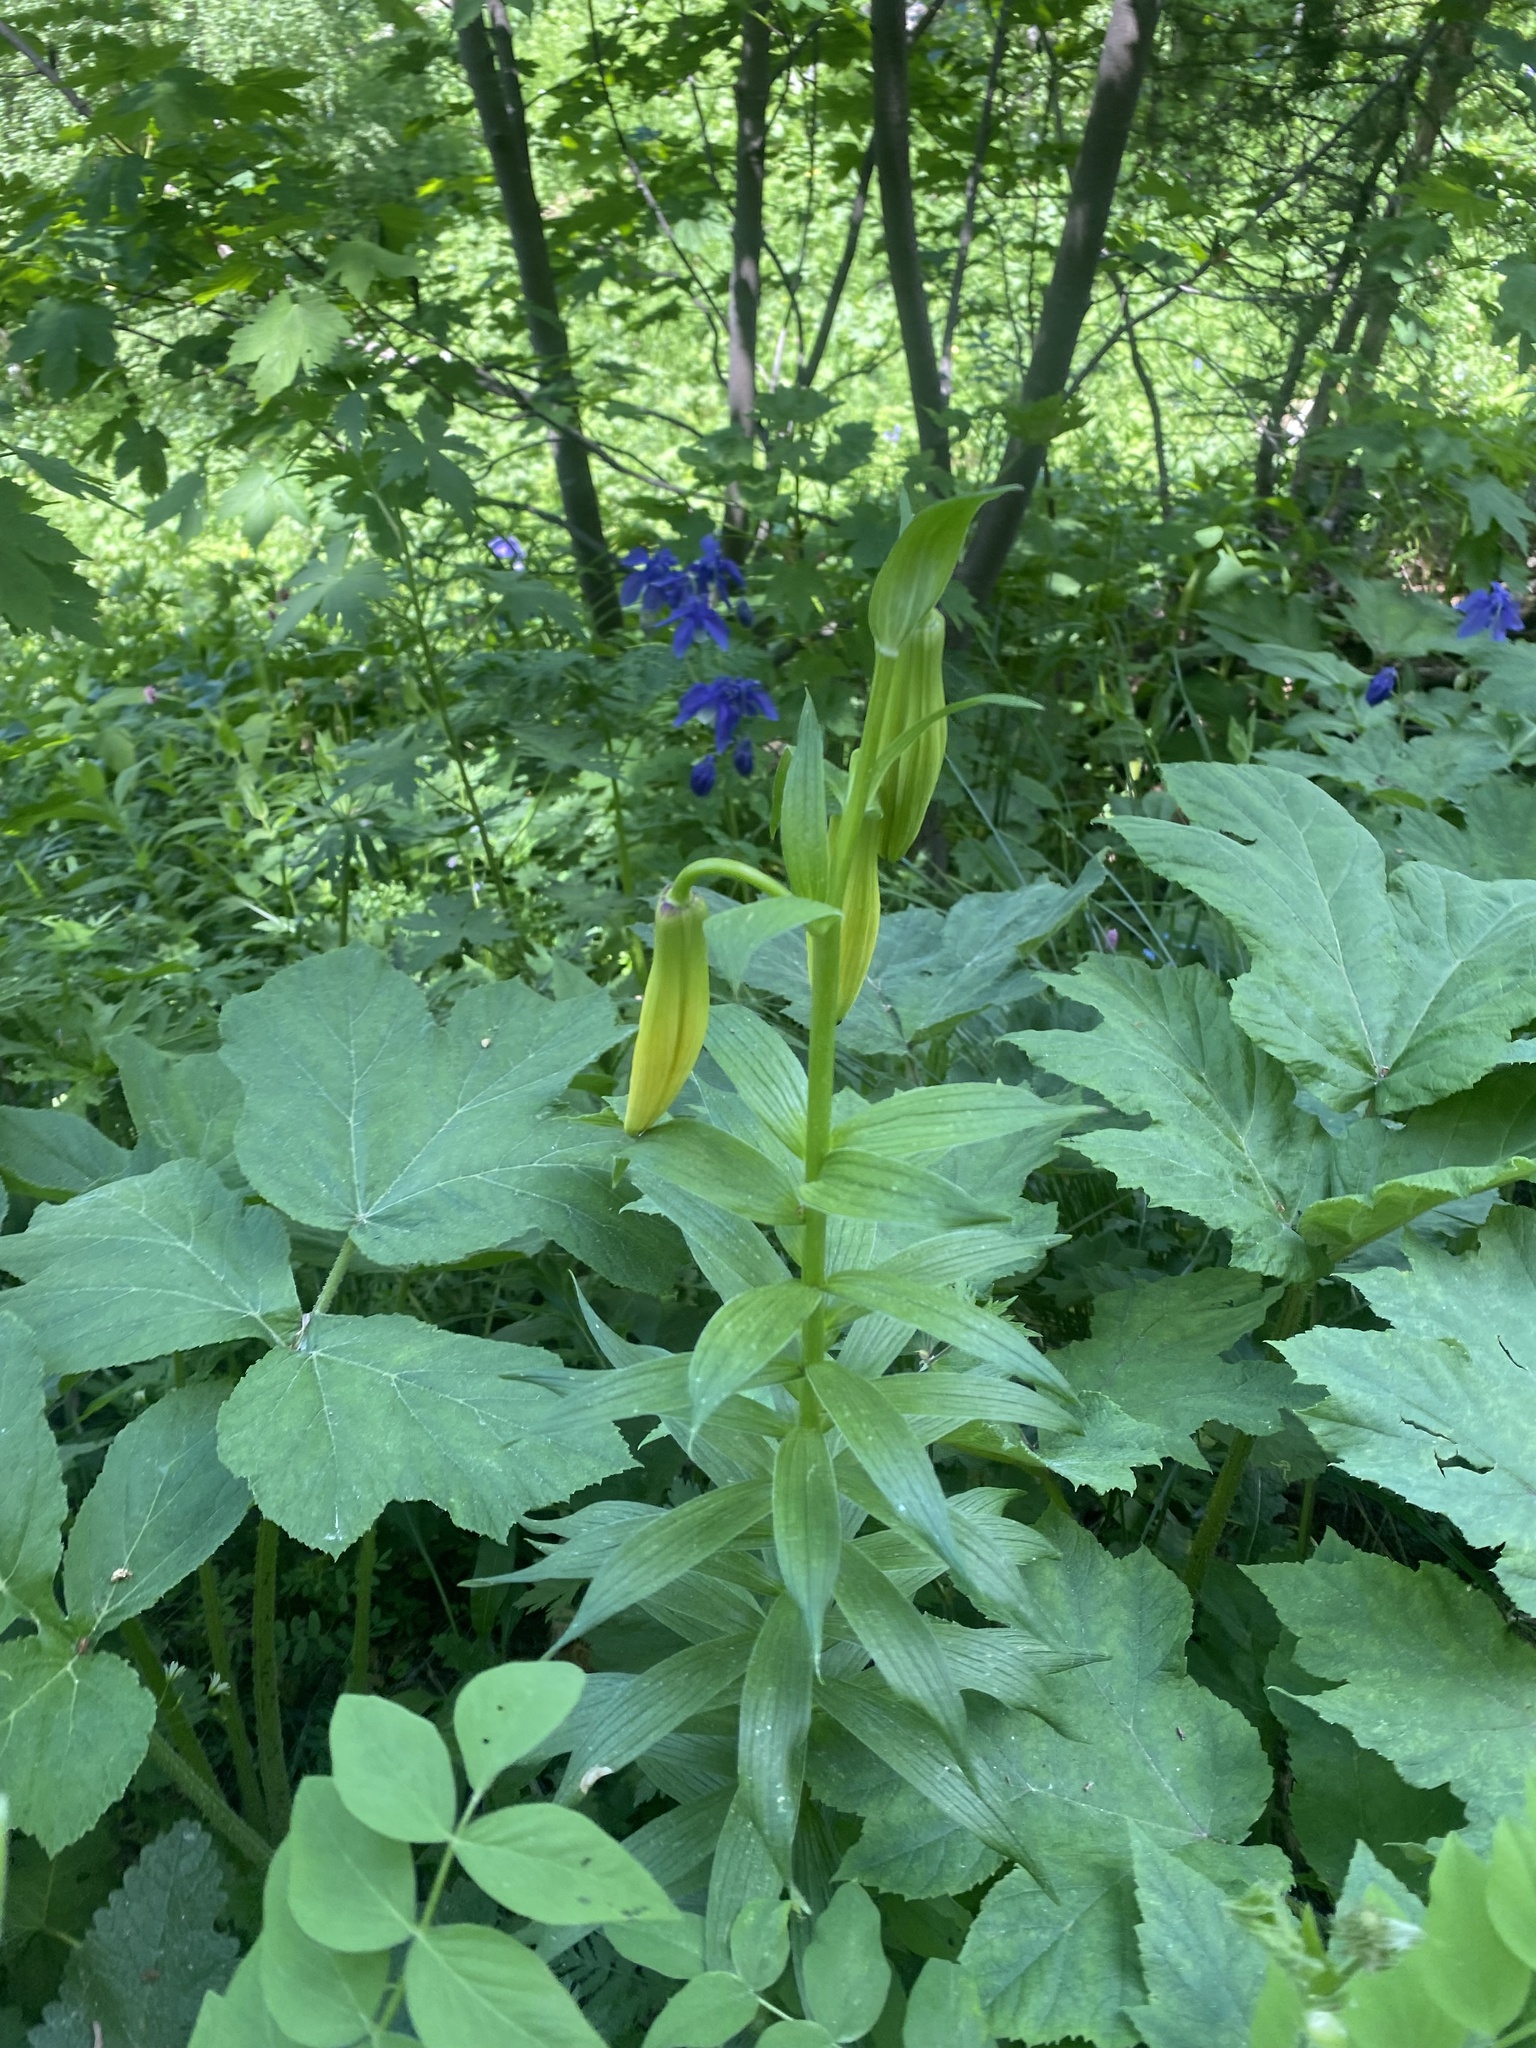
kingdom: Plantae
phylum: Tracheophyta
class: Liliopsida
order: Liliales
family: Liliaceae
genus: Lilium
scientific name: Lilium monadelphum
